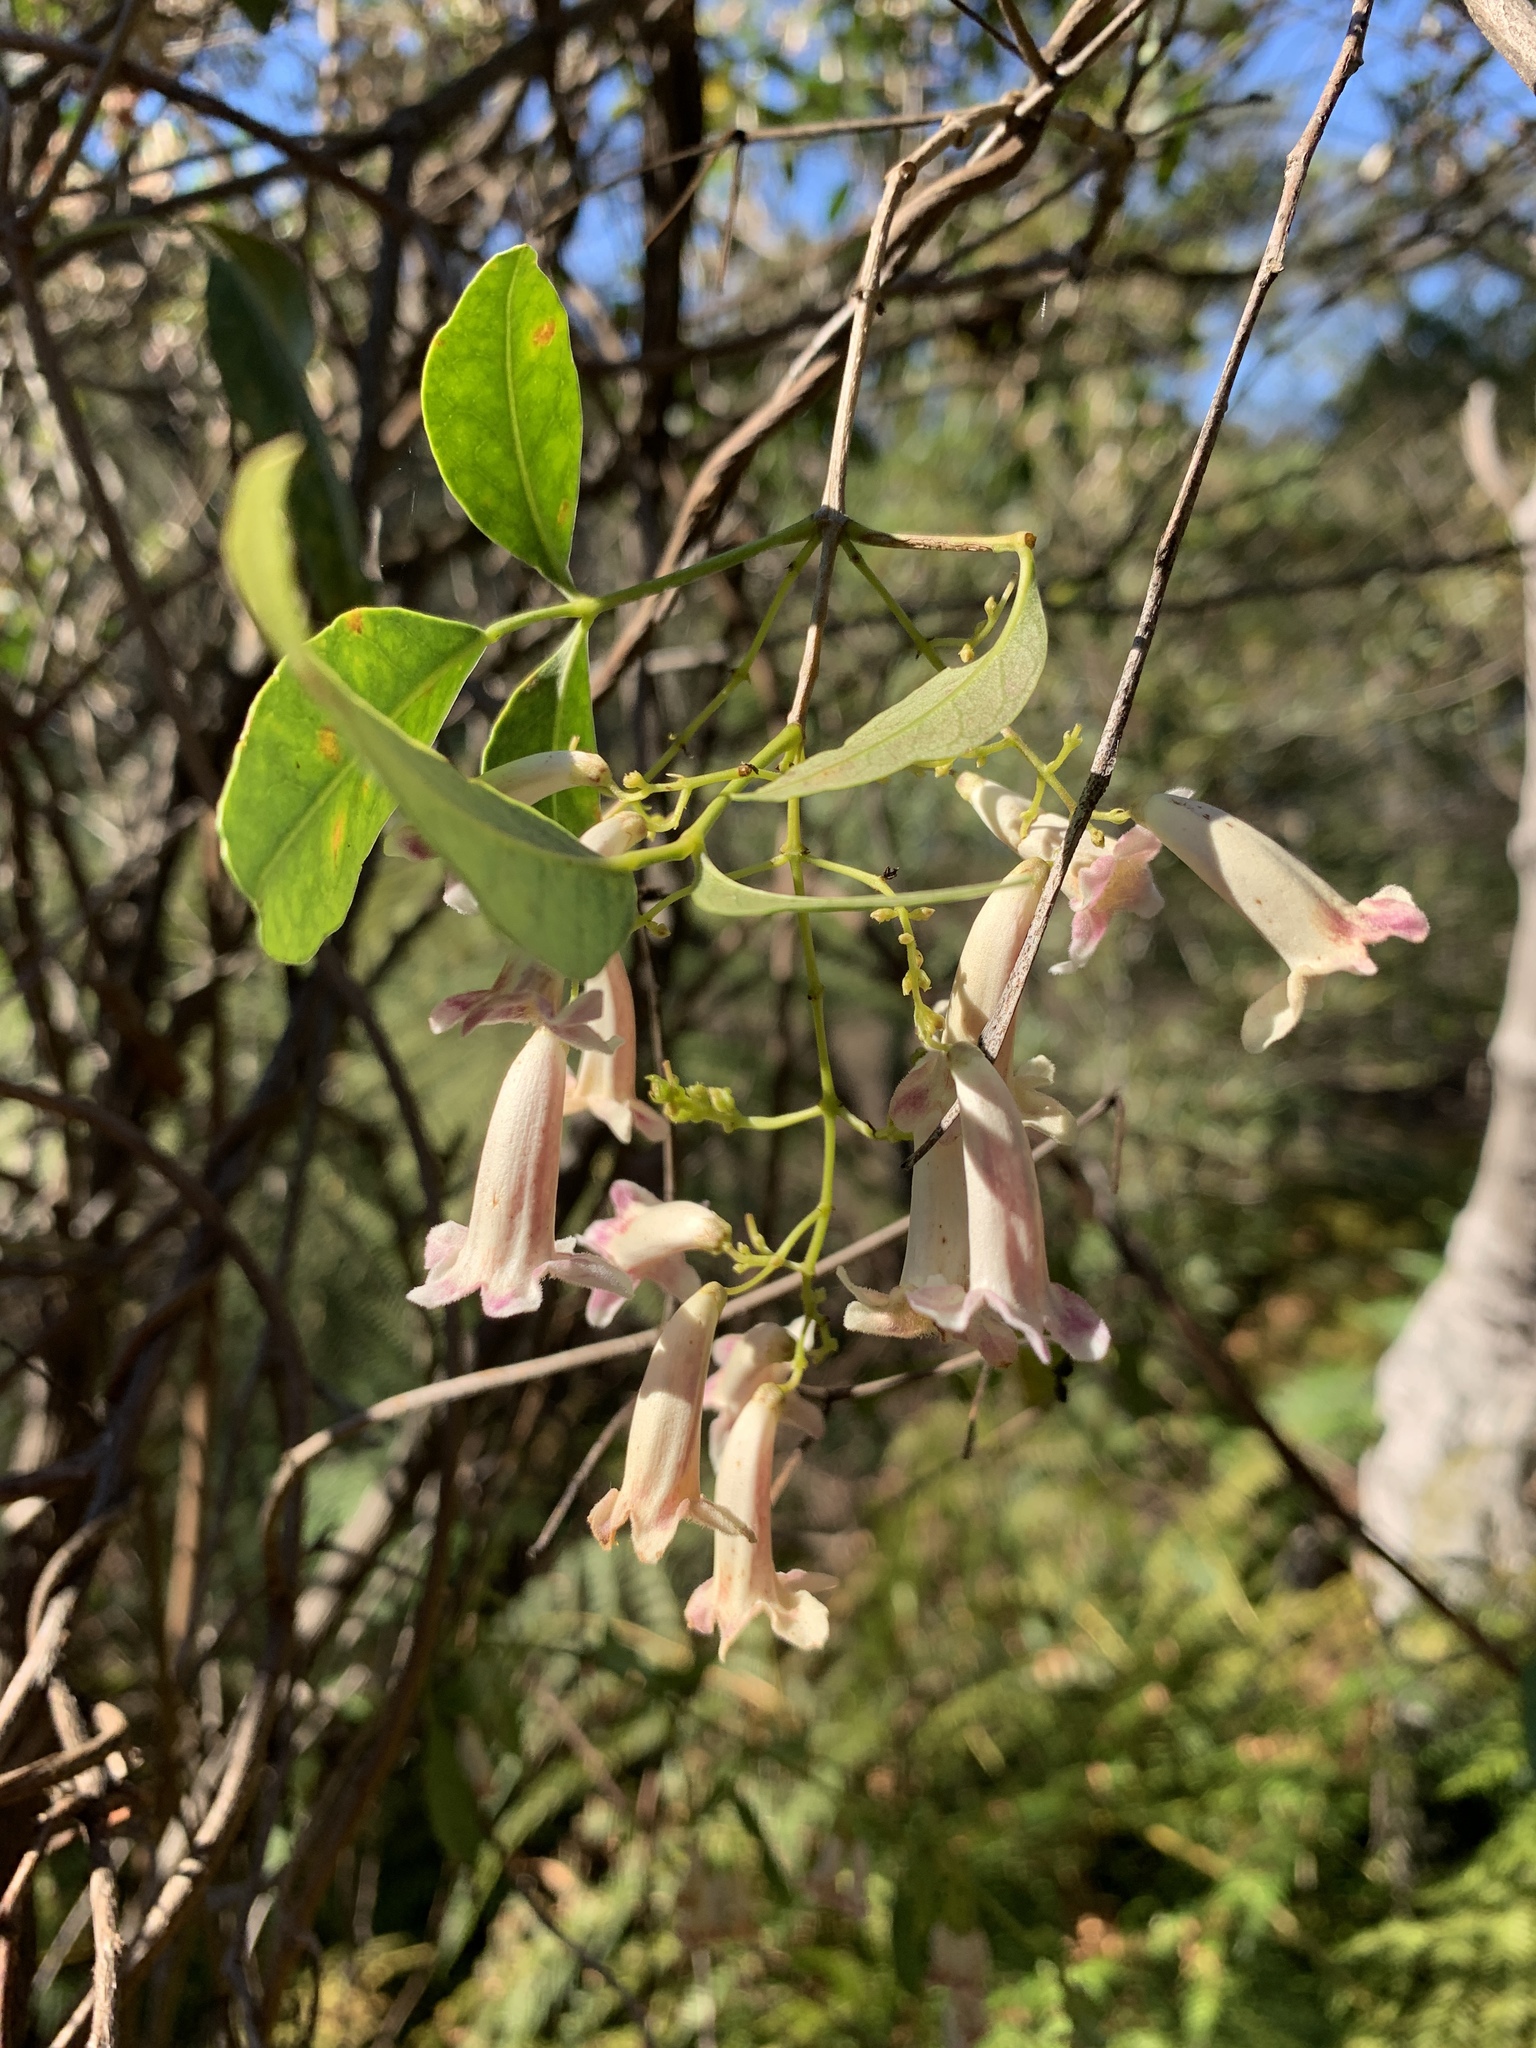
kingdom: Plantae
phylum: Tracheophyta
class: Magnoliopsida
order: Lamiales
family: Bignoniaceae
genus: Pandorea
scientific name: Pandorea pandorana
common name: Wonga-wonga-vine
